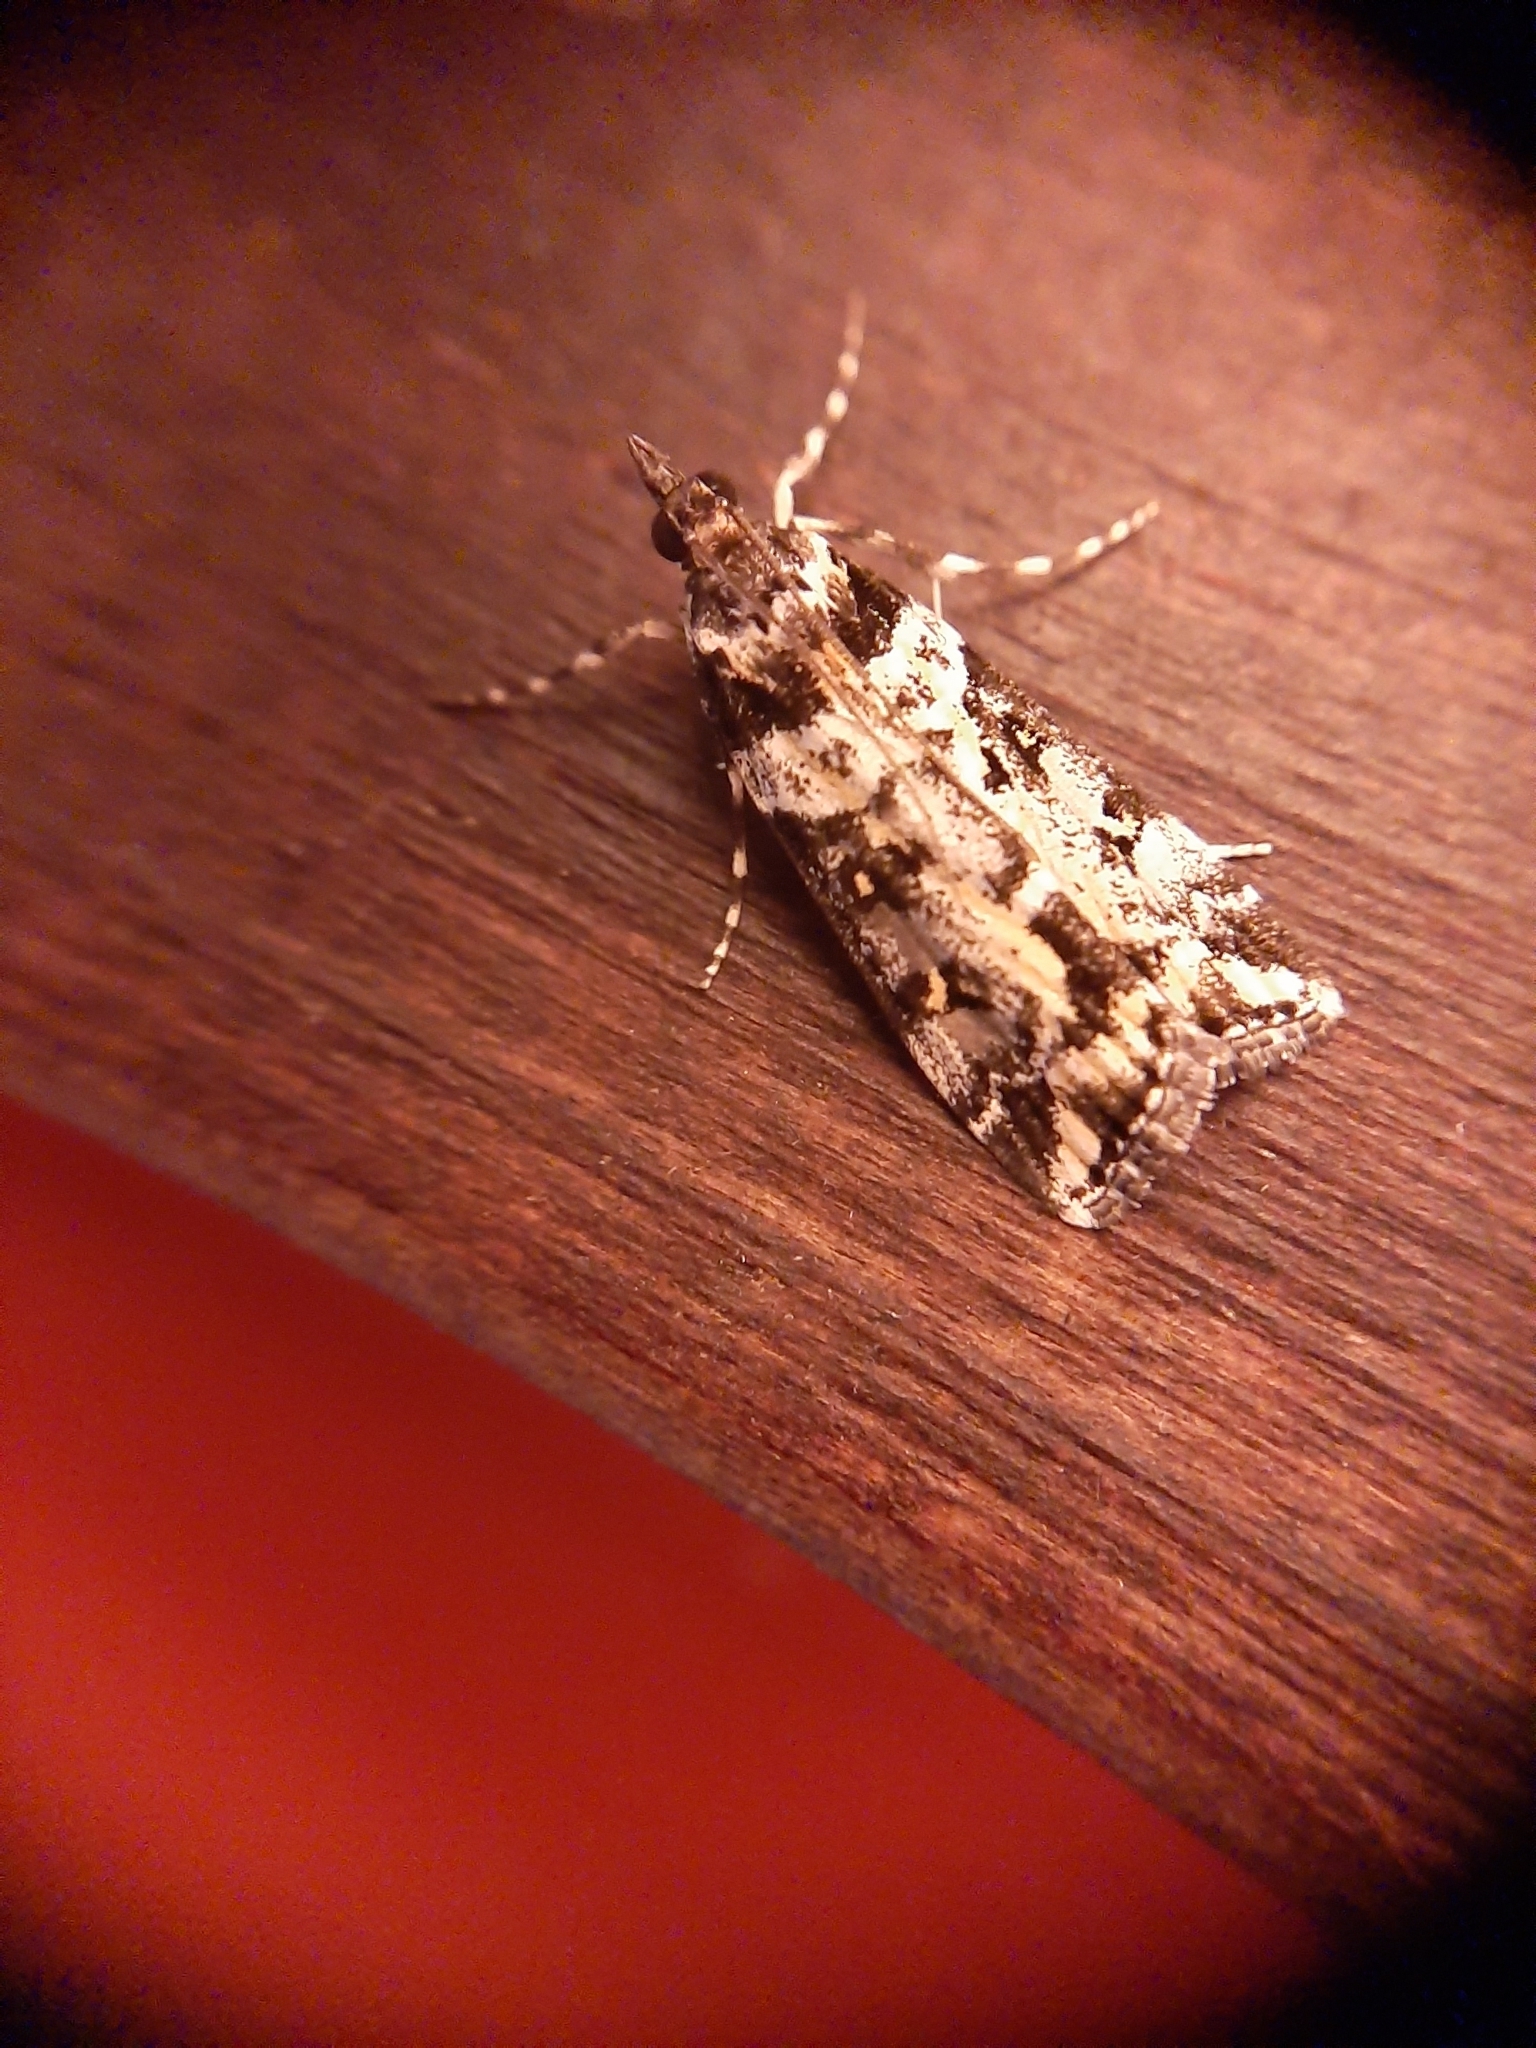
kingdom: Animalia
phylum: Arthropoda
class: Insecta
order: Lepidoptera
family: Crambidae
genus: Eudonia
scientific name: Eudonia diphtheralis
